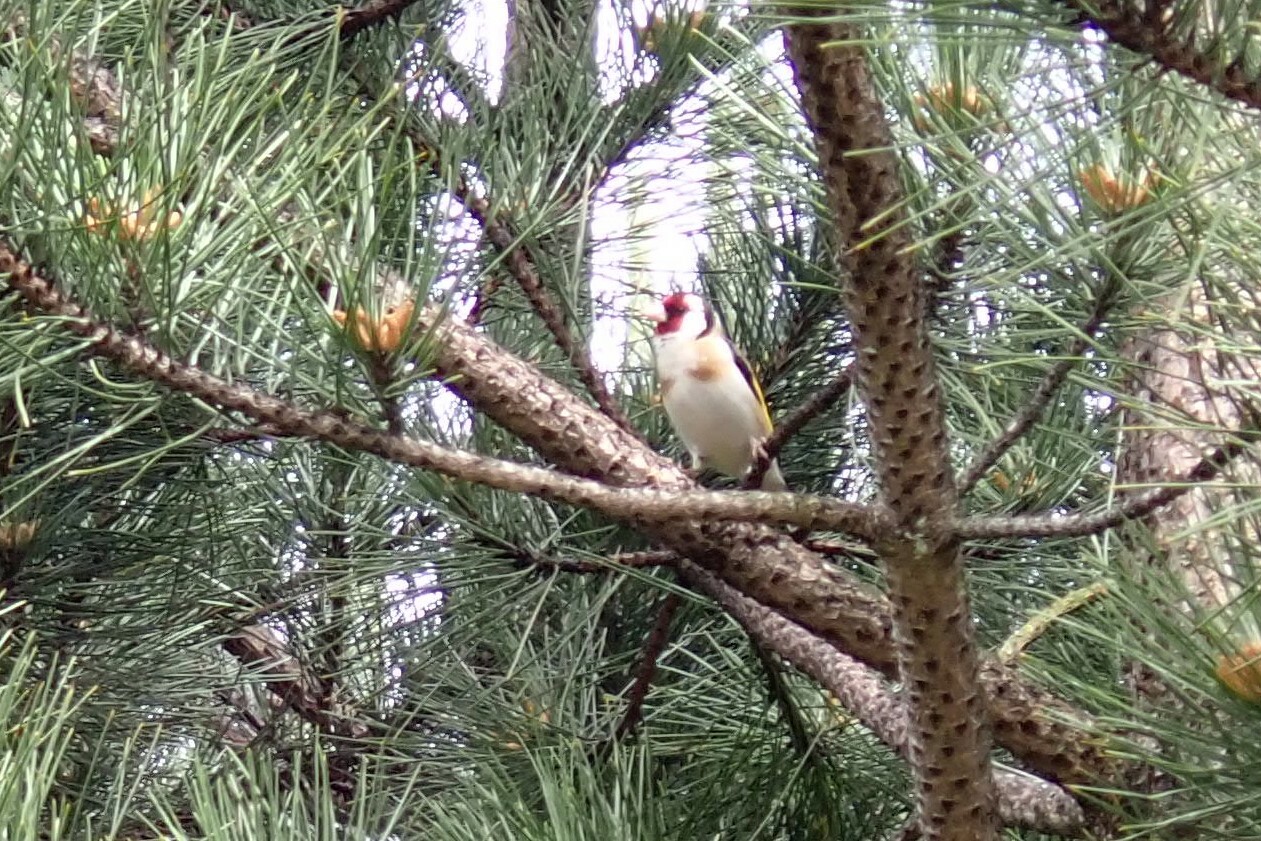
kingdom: Animalia
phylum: Chordata
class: Aves
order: Passeriformes
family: Fringillidae
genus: Carduelis
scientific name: Carduelis carduelis
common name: European goldfinch
